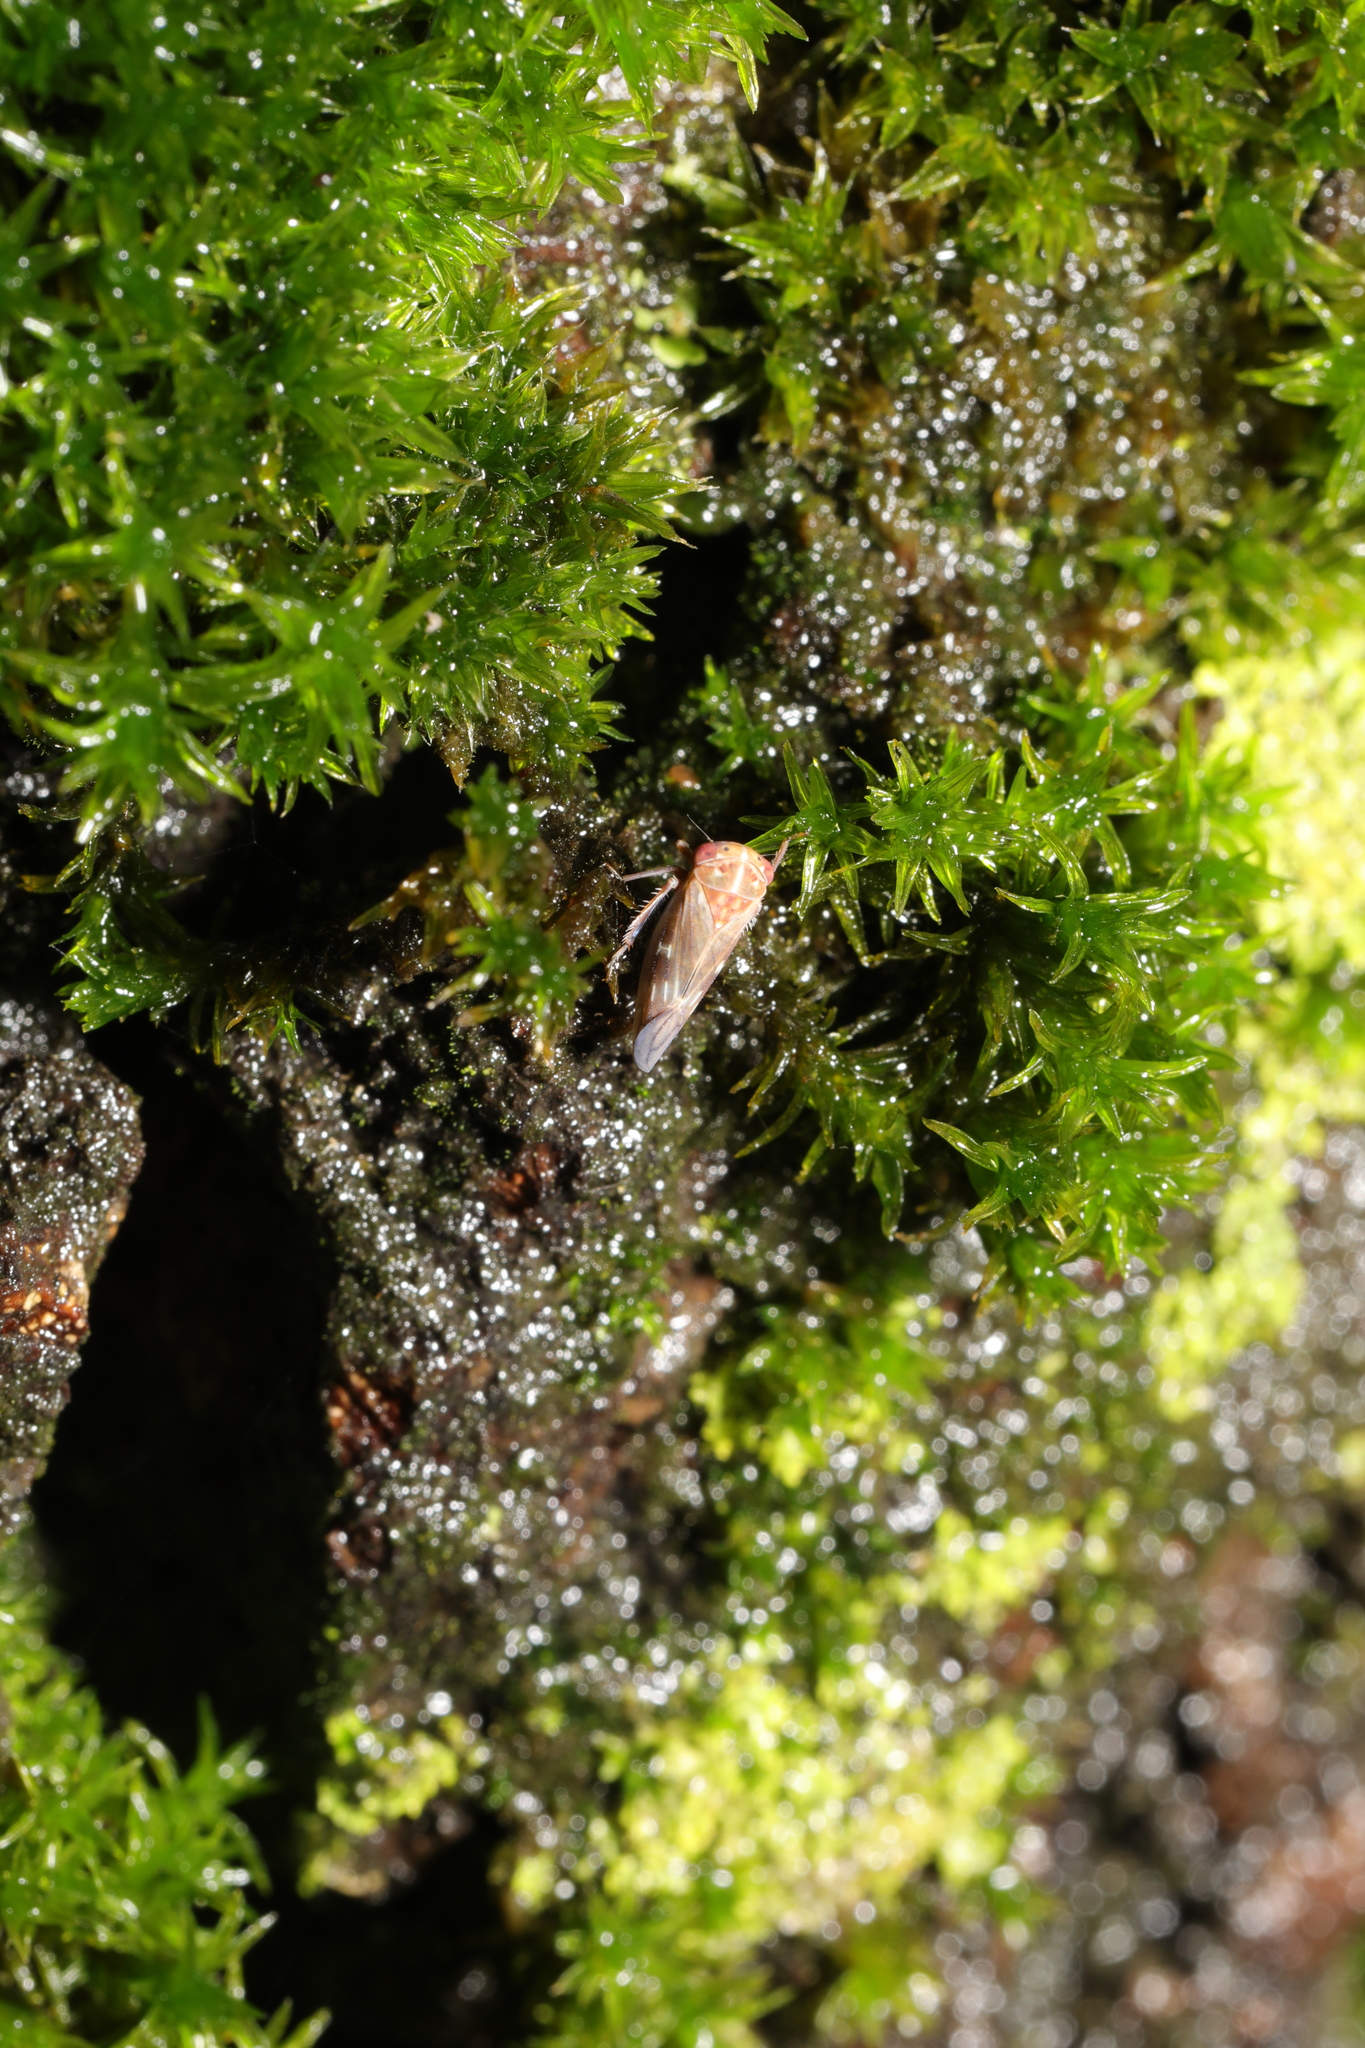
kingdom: Animalia
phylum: Arthropoda
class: Insecta
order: Hemiptera
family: Cicadellidae
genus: Metidiocerus
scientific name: Metidiocerus rutilans
